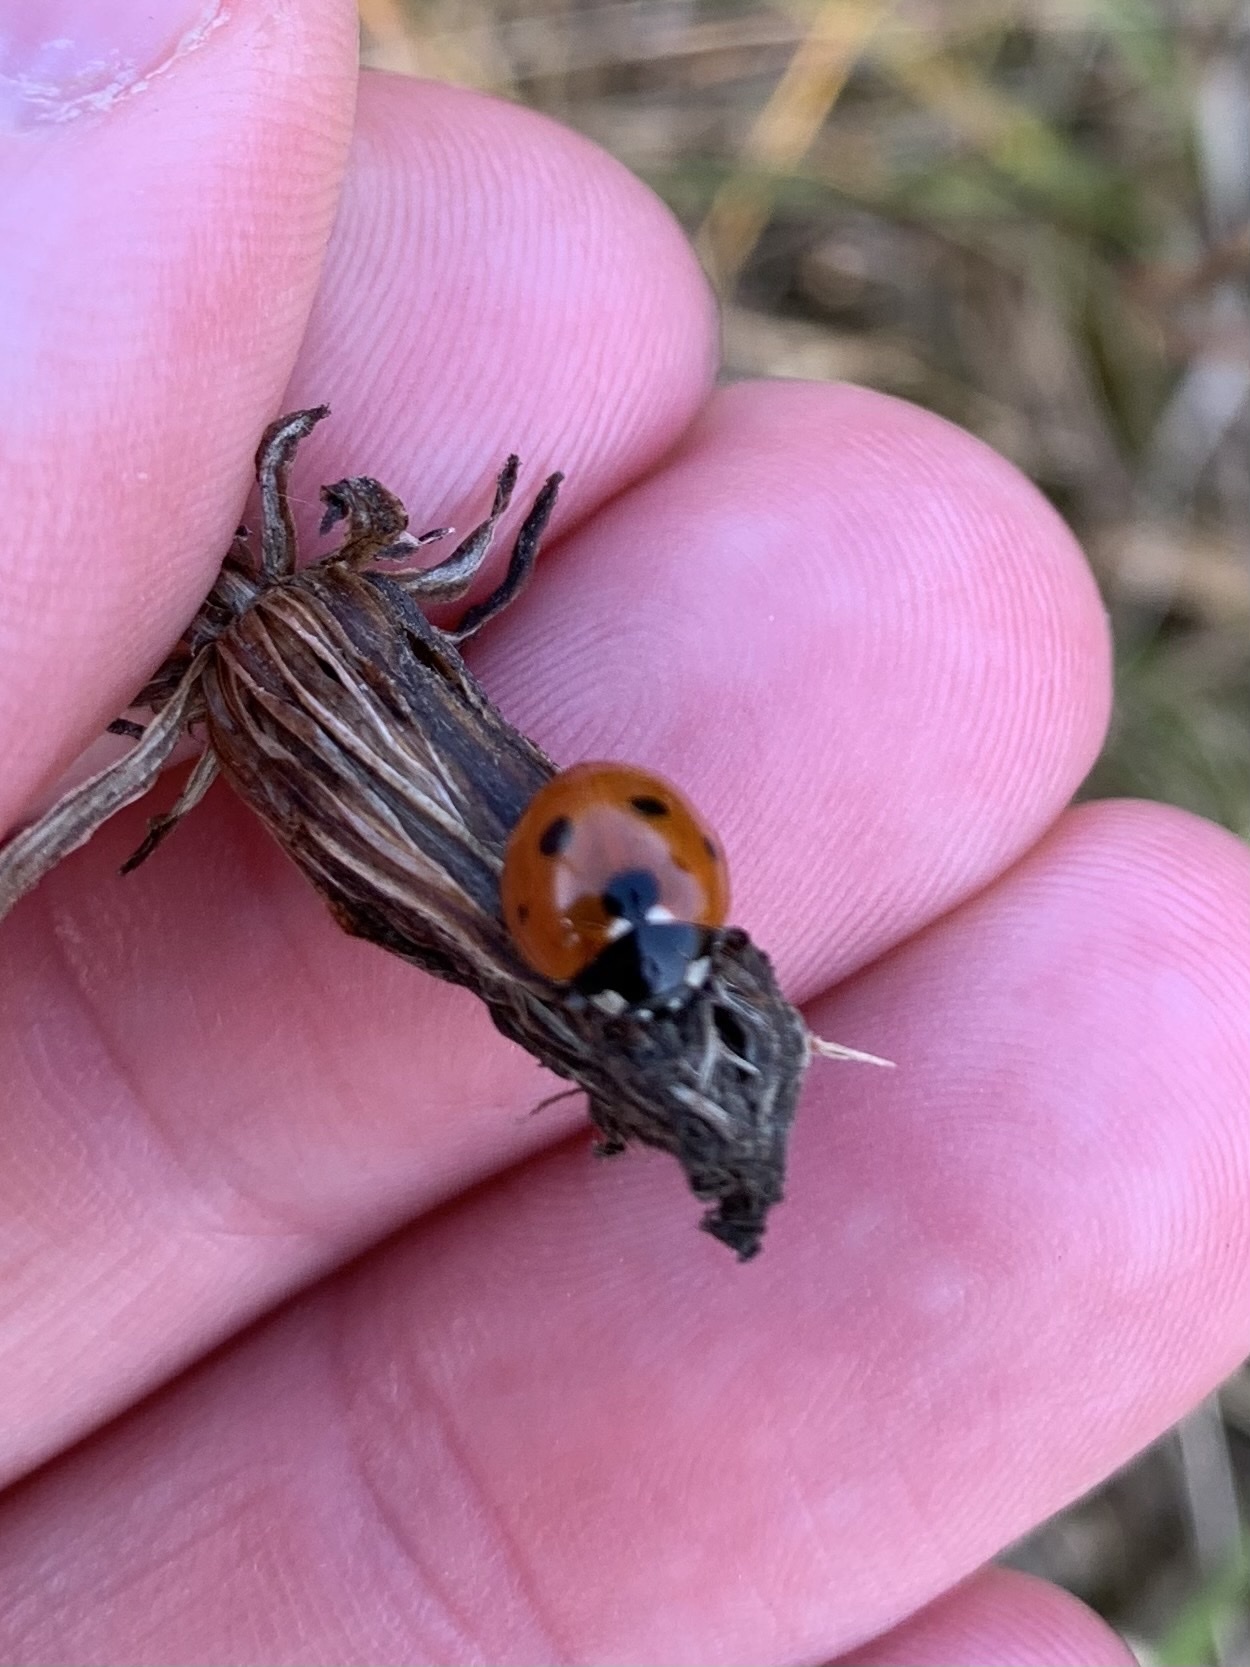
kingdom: Animalia
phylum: Arthropoda
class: Insecta
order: Coleoptera
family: Coccinellidae
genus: Coccinella
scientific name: Coccinella septempunctata
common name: Sevenspotted lady beetle
